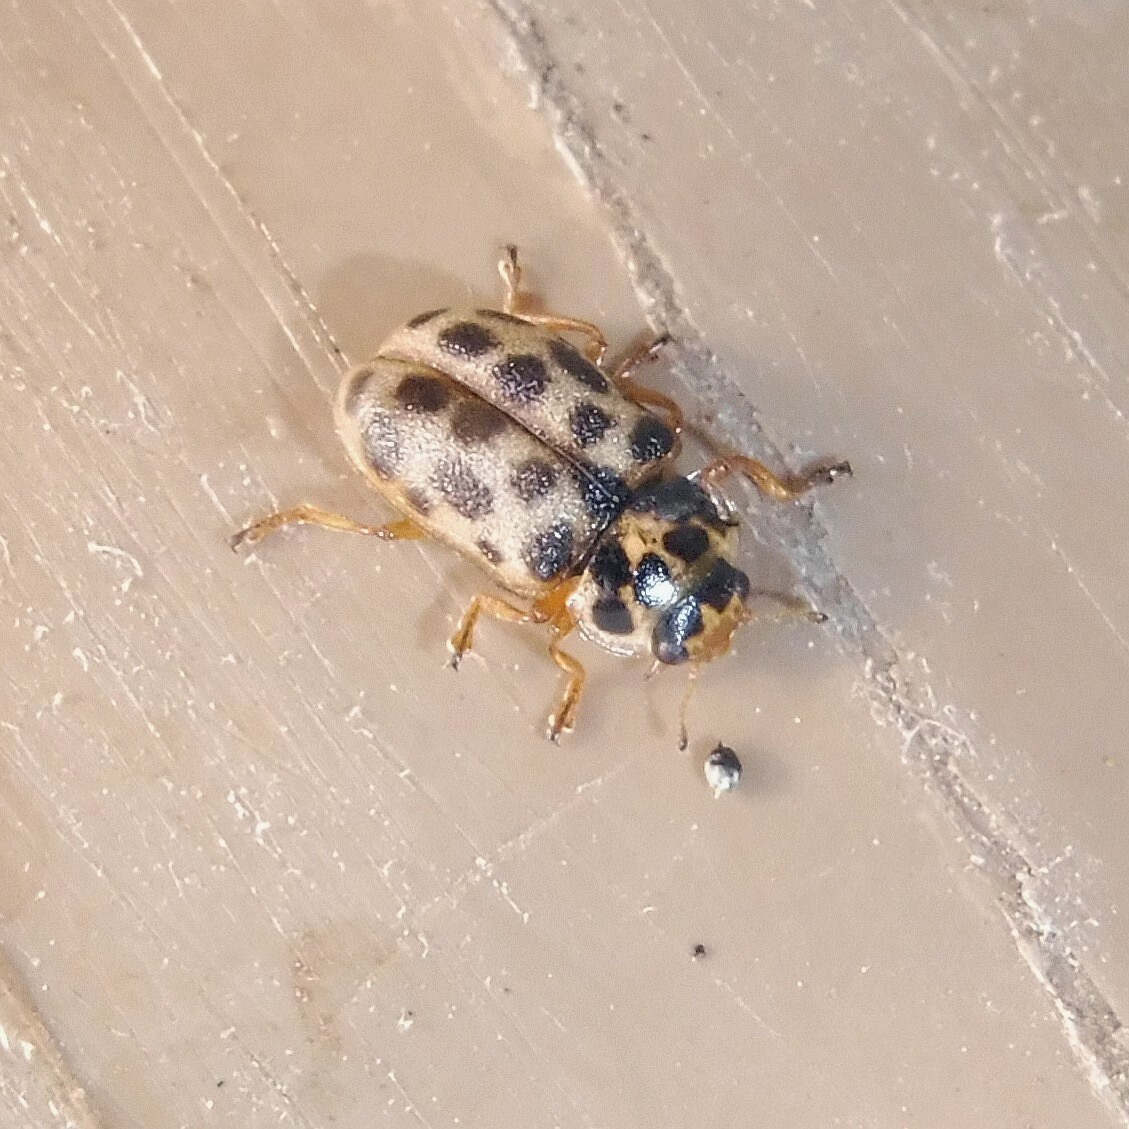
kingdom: Animalia
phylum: Arthropoda
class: Insecta
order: Coleoptera
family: Coccinellidae
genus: Anisosticta
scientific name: Anisosticta novemdecimpunctata
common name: Water ladybird
